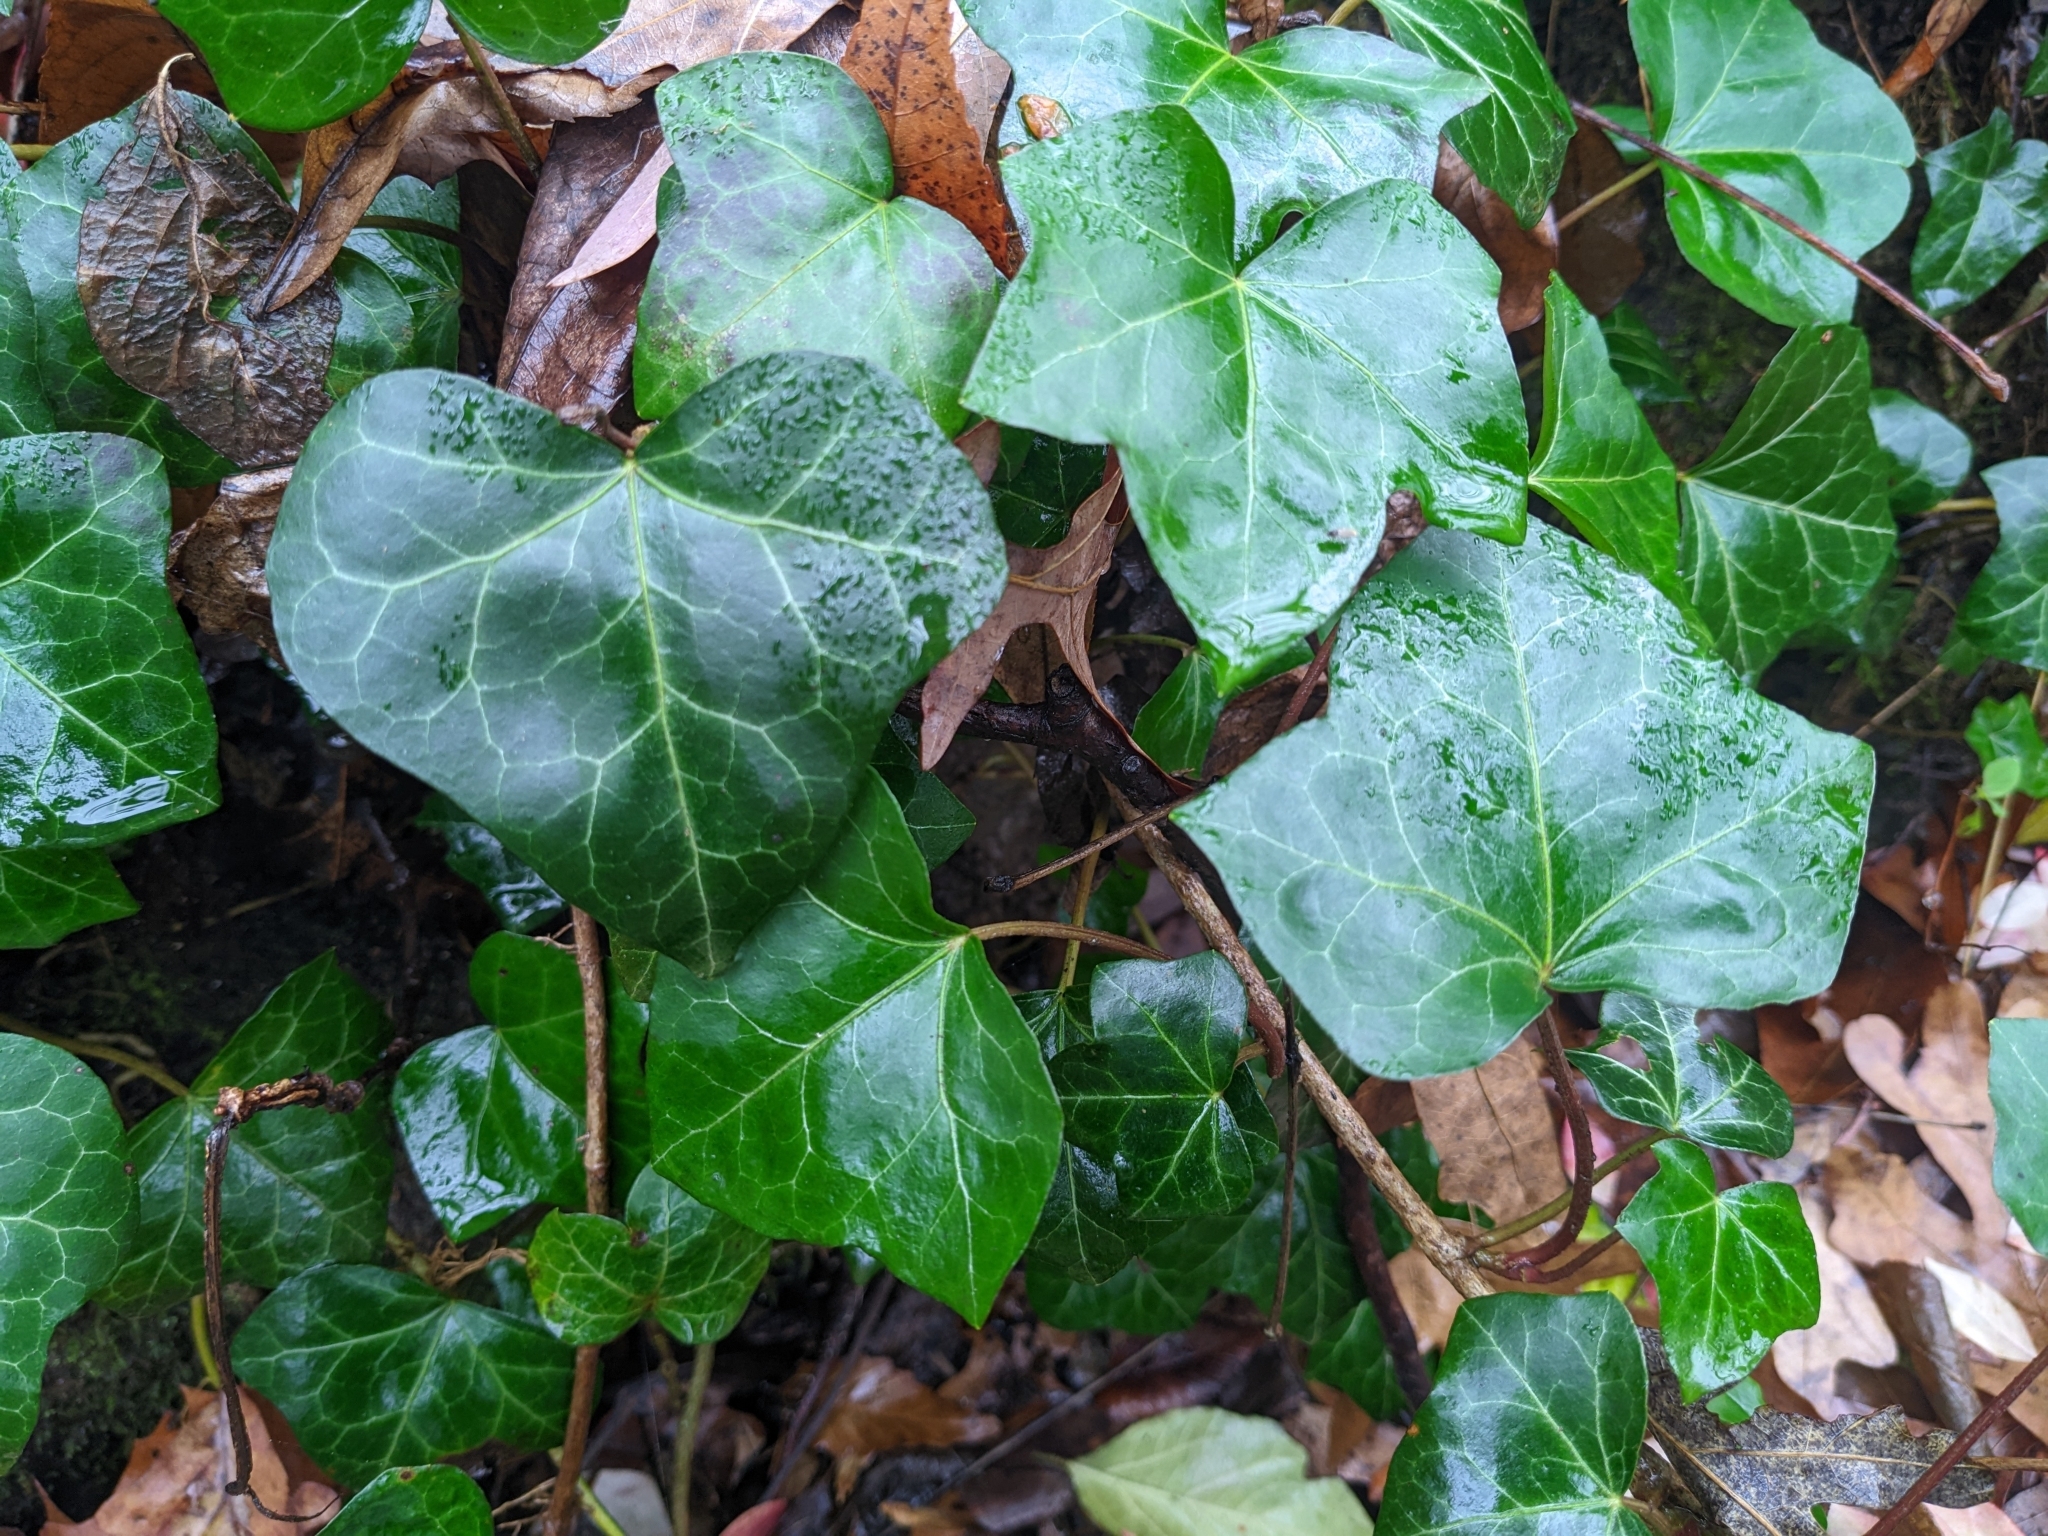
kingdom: Plantae
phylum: Tracheophyta
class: Magnoliopsida
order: Apiales
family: Araliaceae
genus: Hedera
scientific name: Hedera helix
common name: Ivy
